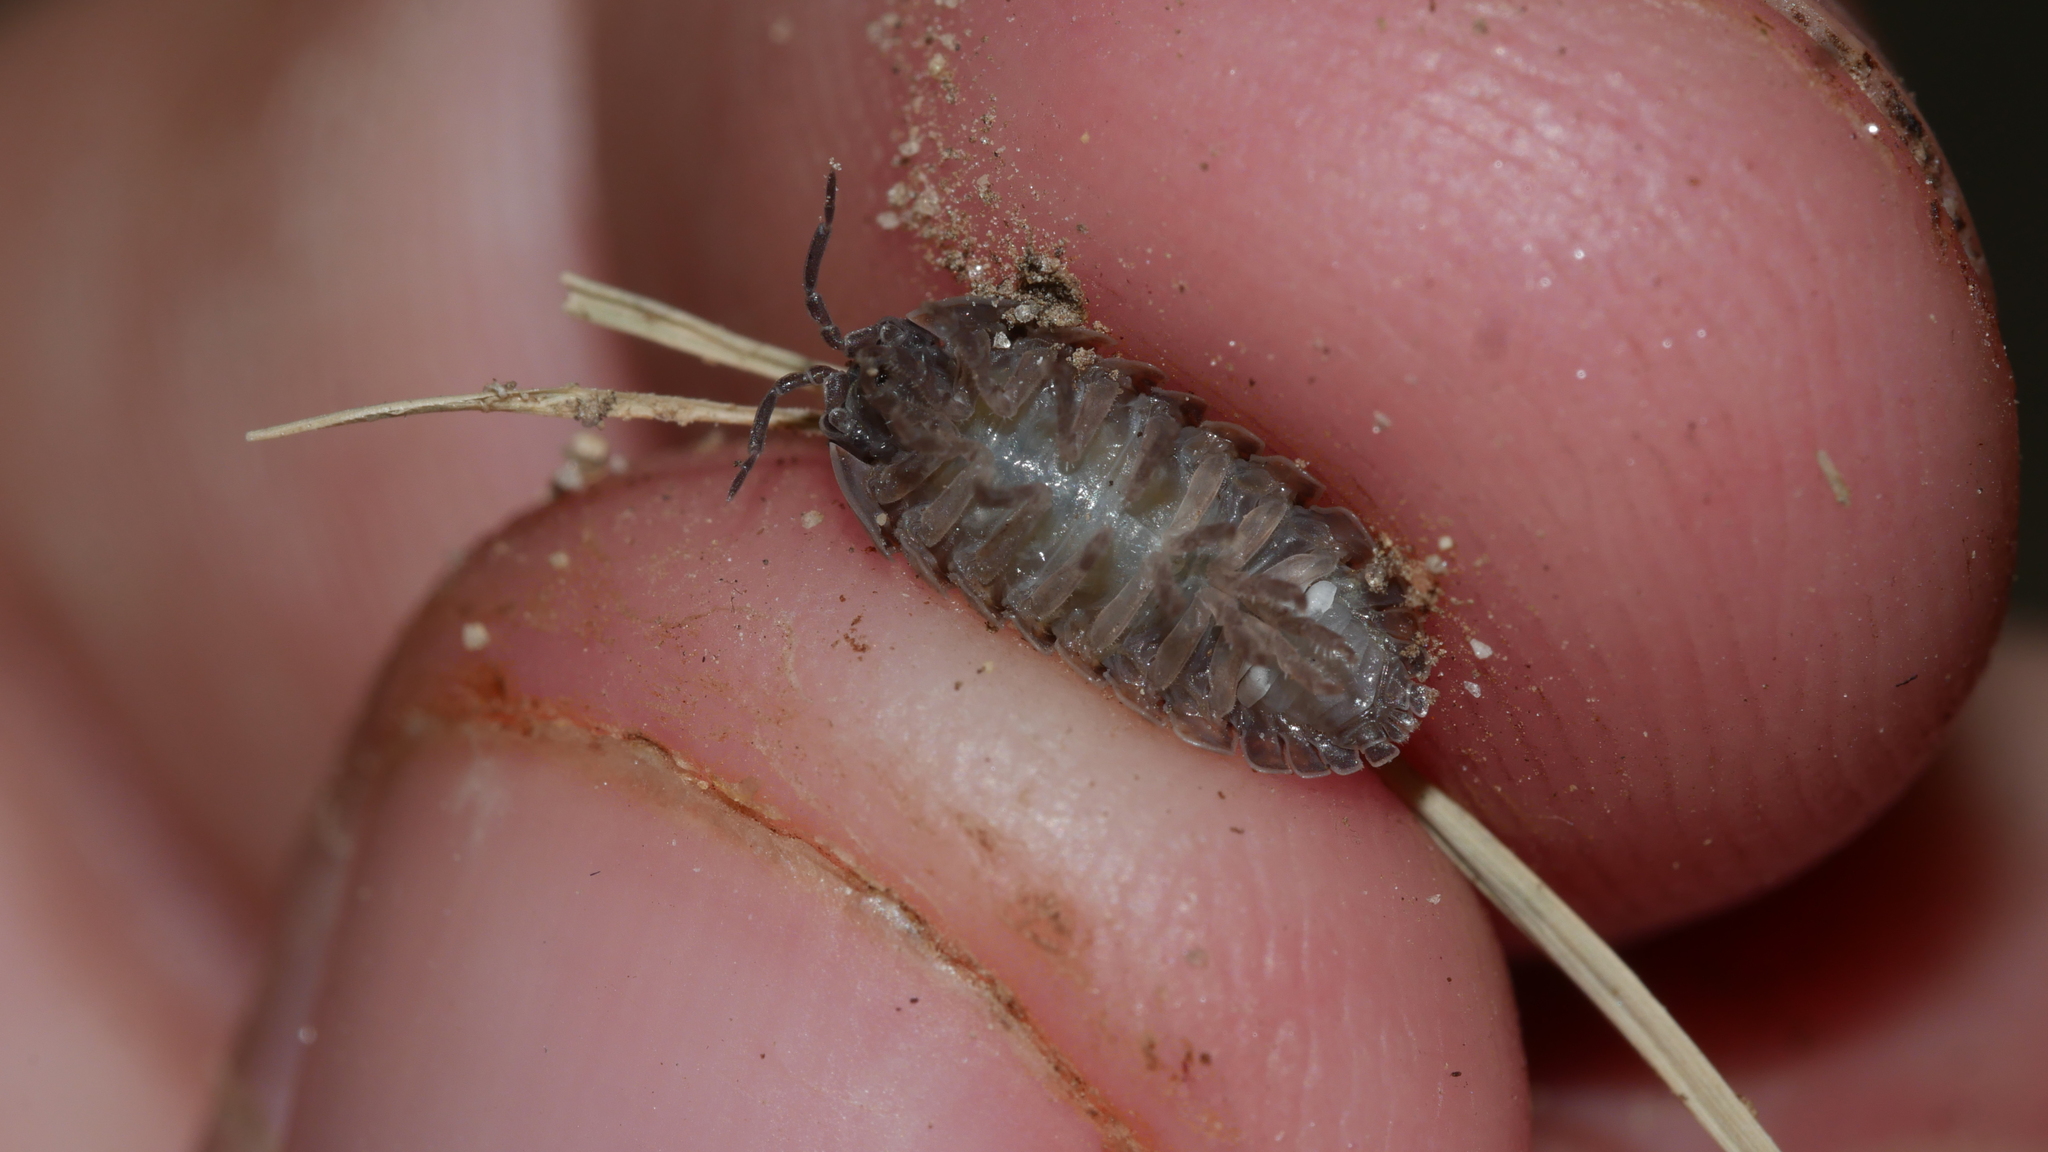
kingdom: Animalia
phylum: Arthropoda
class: Malacostraca
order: Isopoda
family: Armadillidiidae
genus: Armadillidium
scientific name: Armadillidium vulgare
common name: Common pill woodlouse
